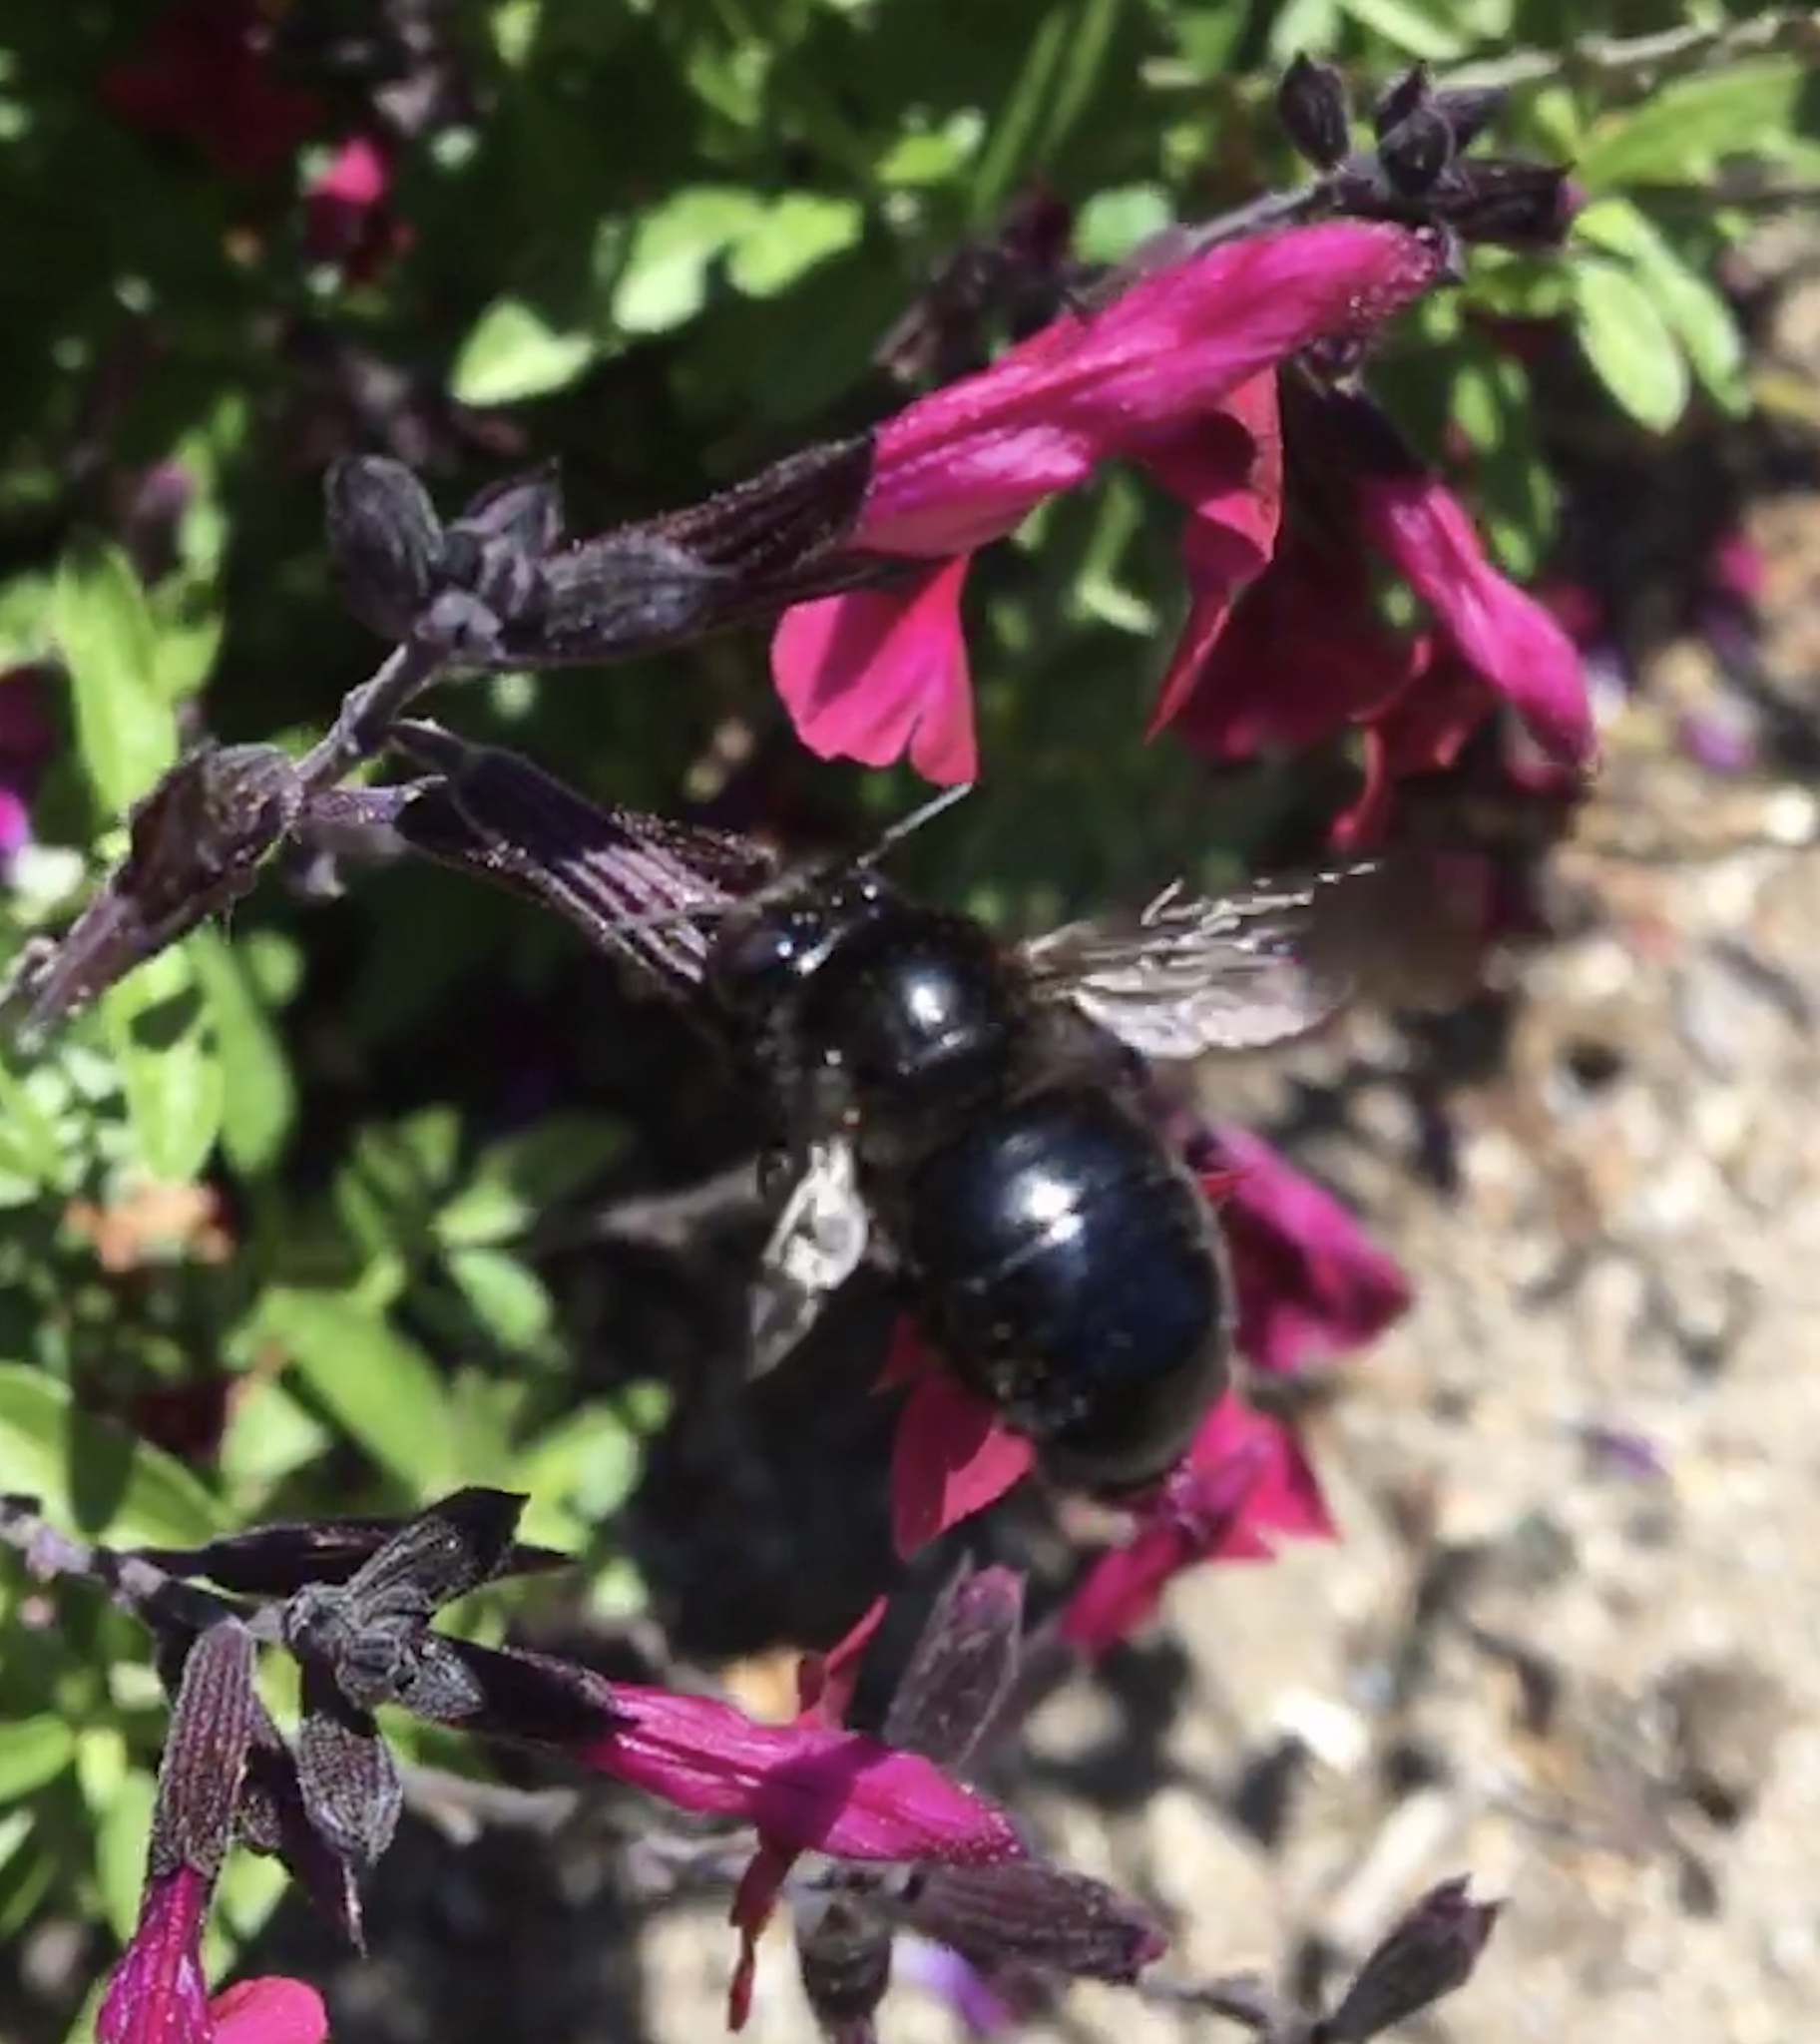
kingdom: Animalia
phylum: Arthropoda
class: Insecta
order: Hymenoptera
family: Apidae
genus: Xylocopa
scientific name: Xylocopa tabaniformis
